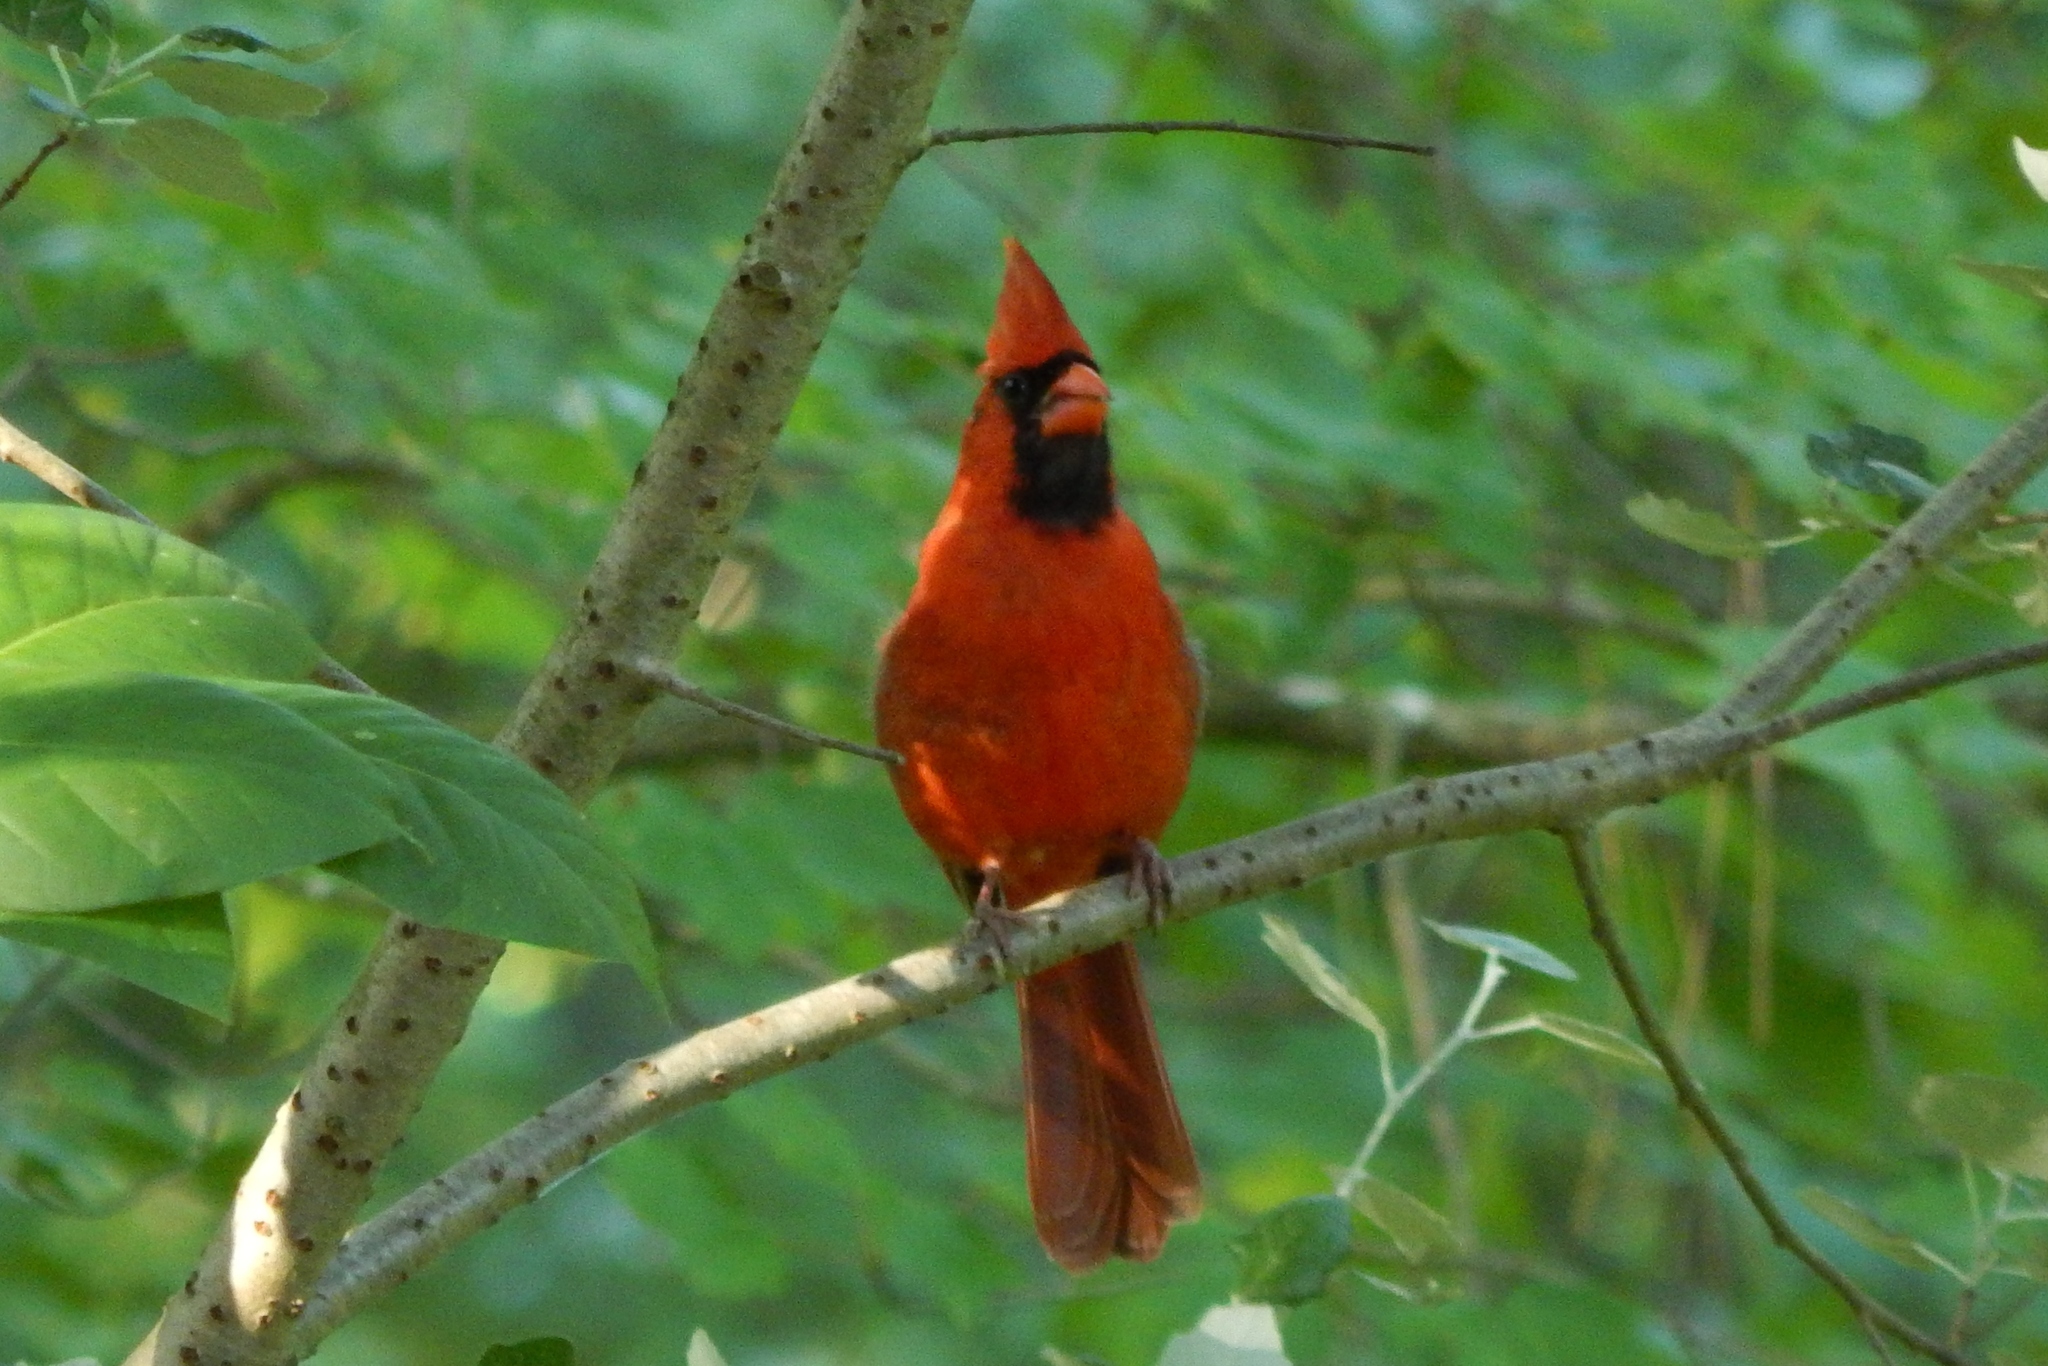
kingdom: Animalia
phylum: Chordata
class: Aves
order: Passeriformes
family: Cardinalidae
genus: Cardinalis
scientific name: Cardinalis cardinalis
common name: Northern cardinal
